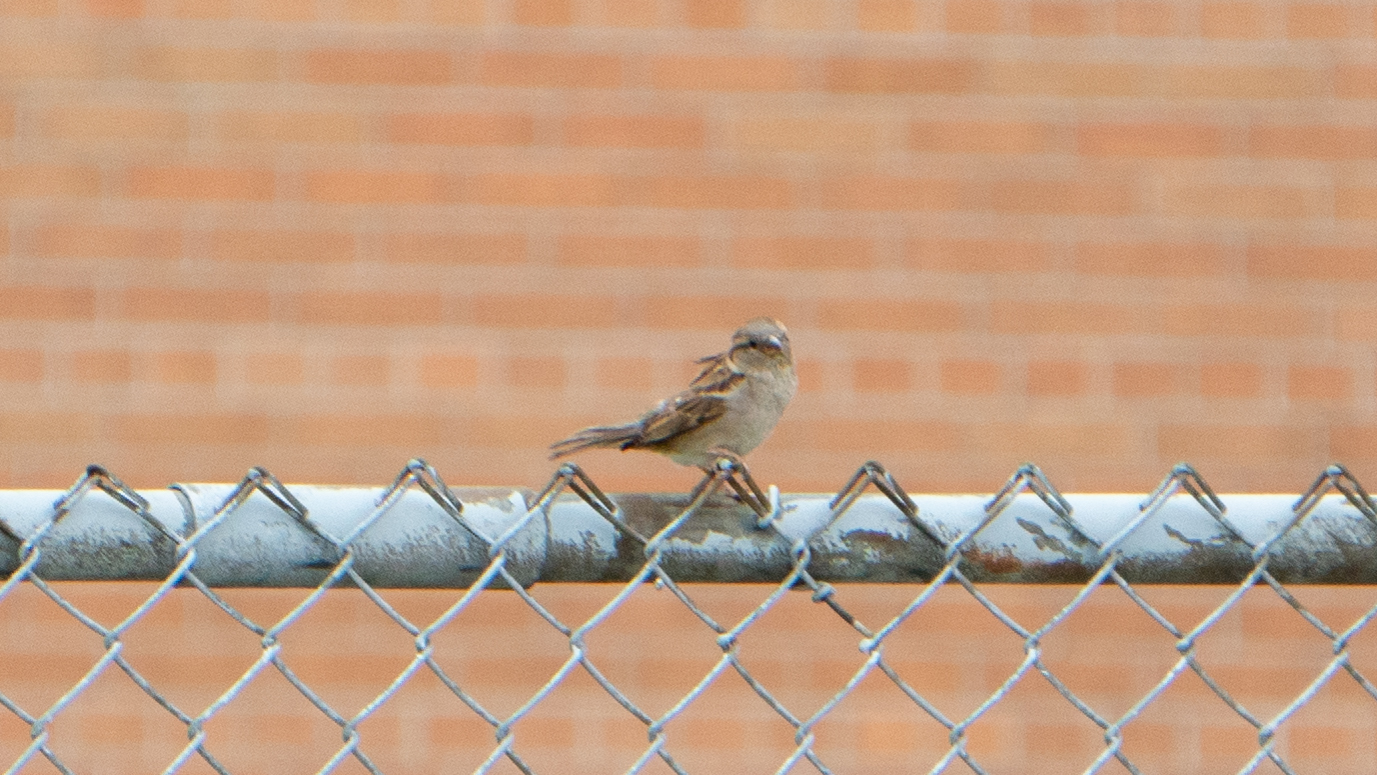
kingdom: Animalia
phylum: Chordata
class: Aves
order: Passeriformes
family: Passeridae
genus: Passer
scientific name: Passer domesticus
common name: House sparrow
